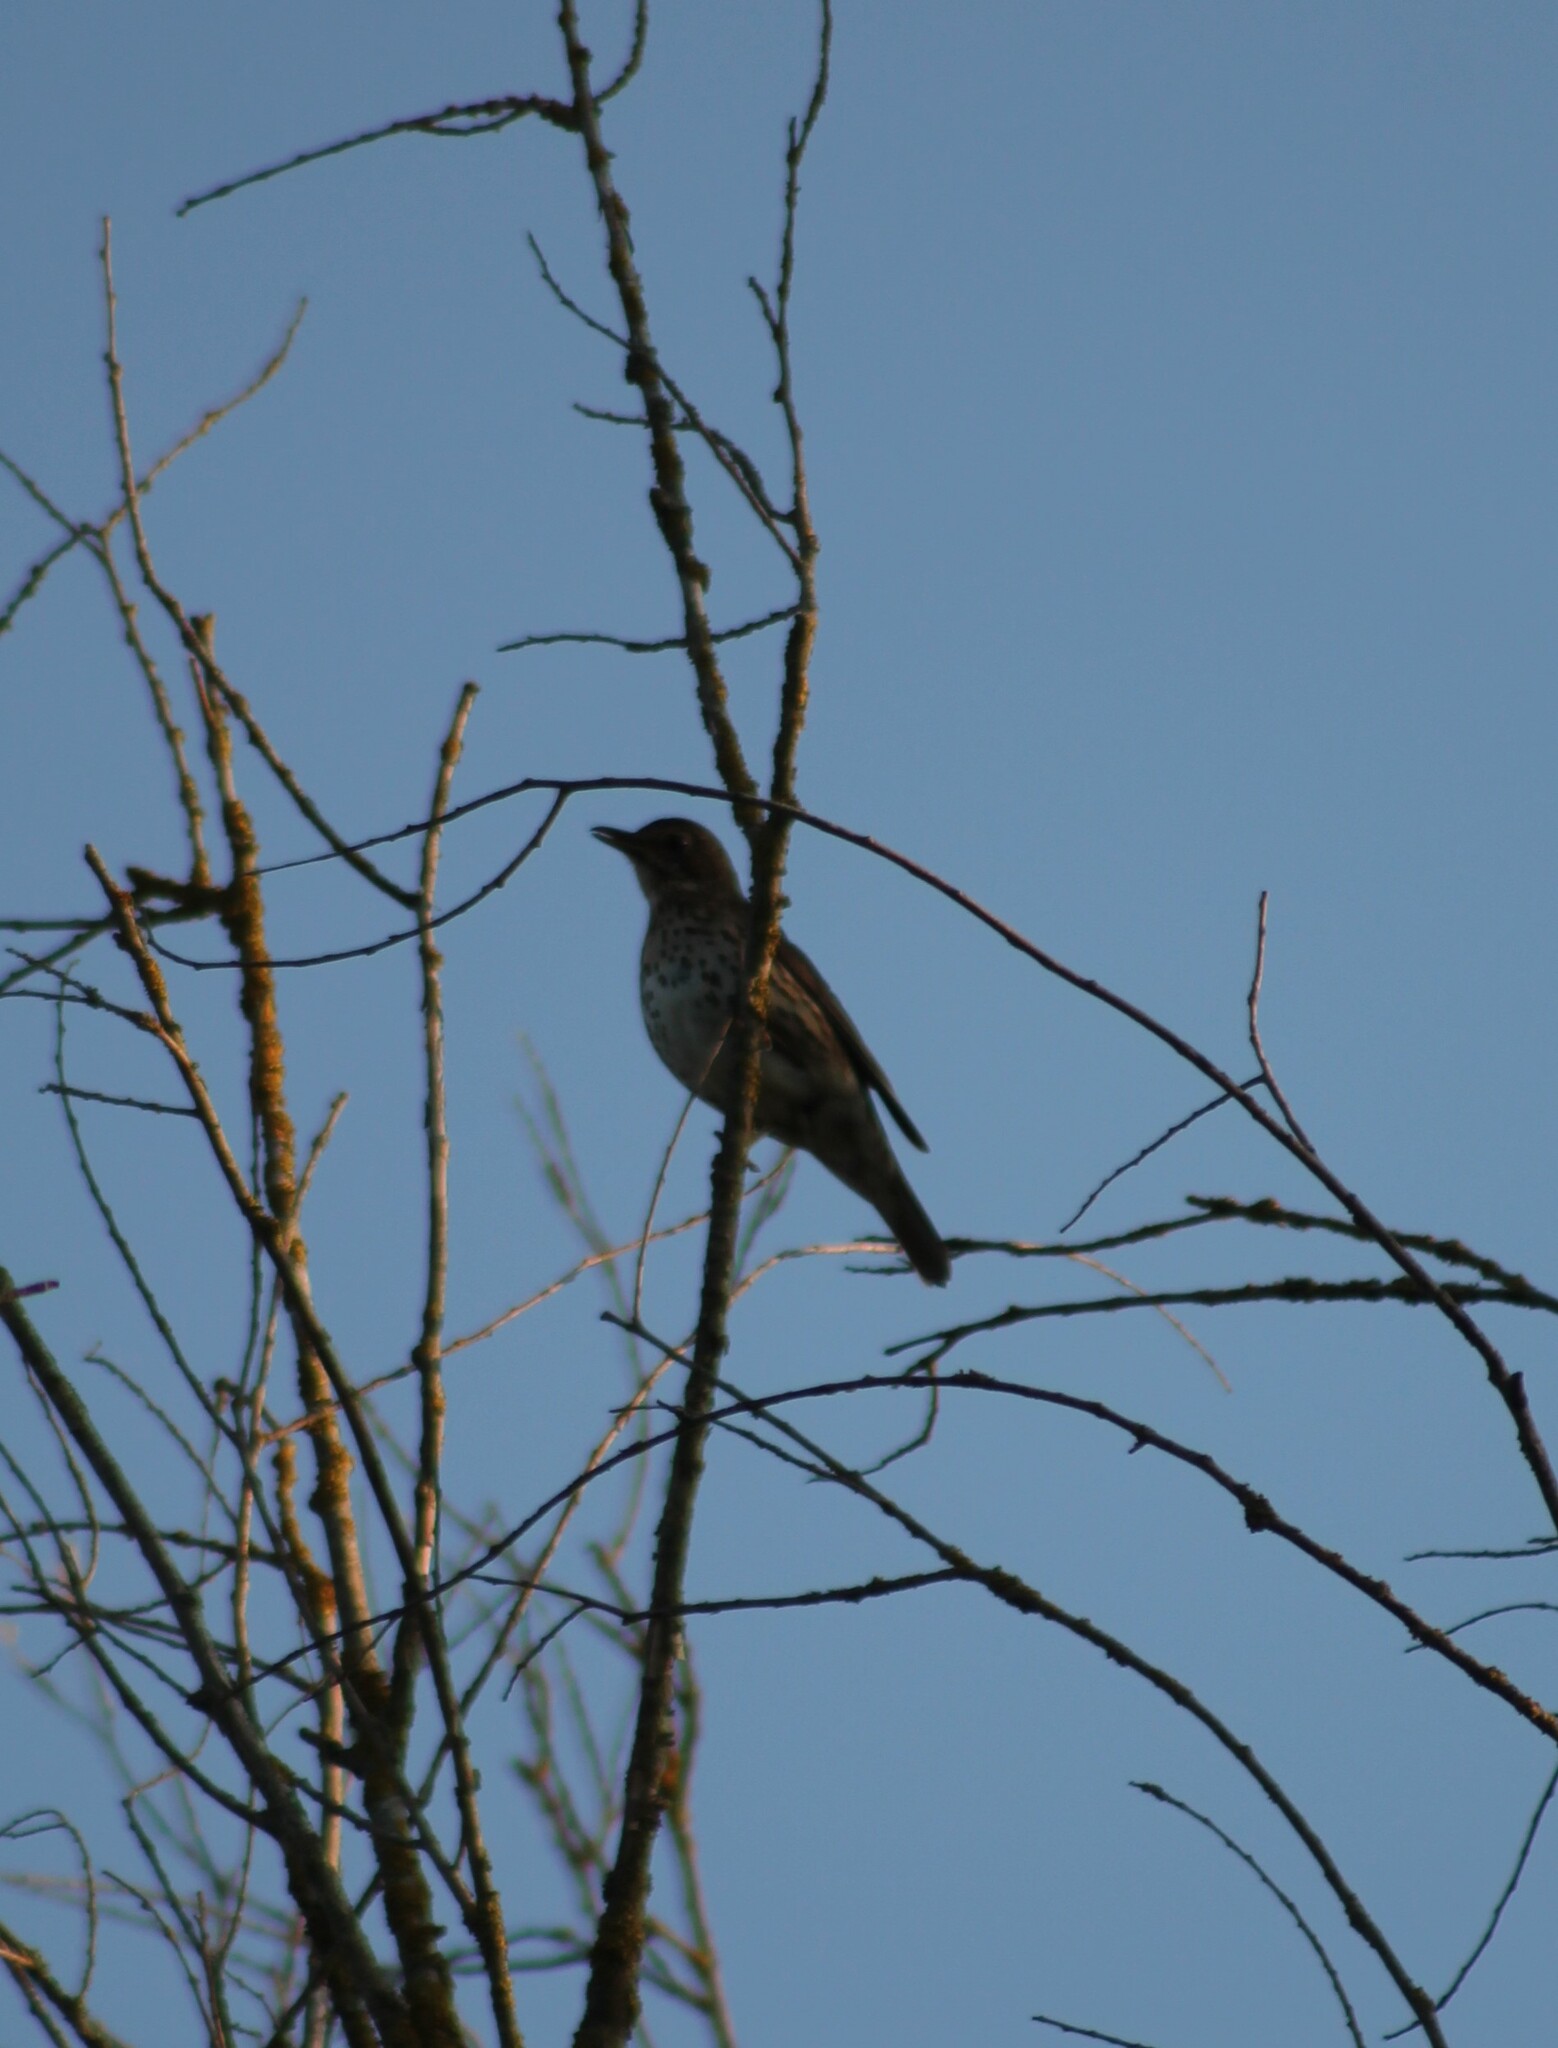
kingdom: Animalia
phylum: Chordata
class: Aves
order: Passeriformes
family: Turdidae
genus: Turdus
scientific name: Turdus philomelos
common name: Song thrush
